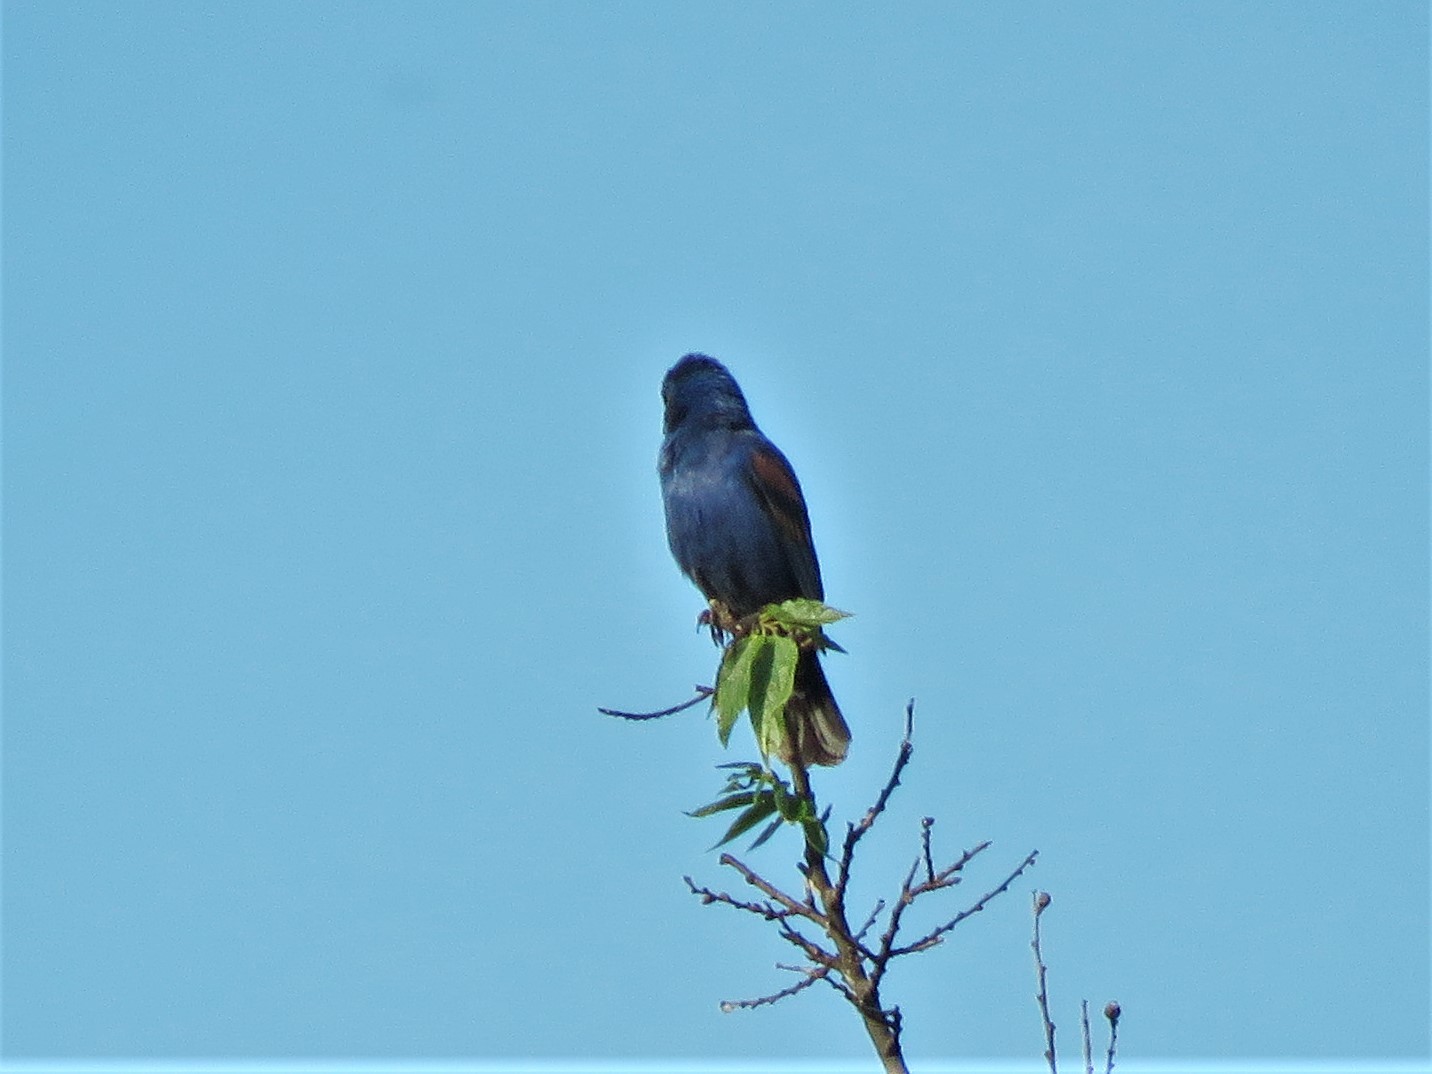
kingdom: Animalia
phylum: Chordata
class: Aves
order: Passeriformes
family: Cardinalidae
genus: Passerina
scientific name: Passerina caerulea
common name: Blue grosbeak
